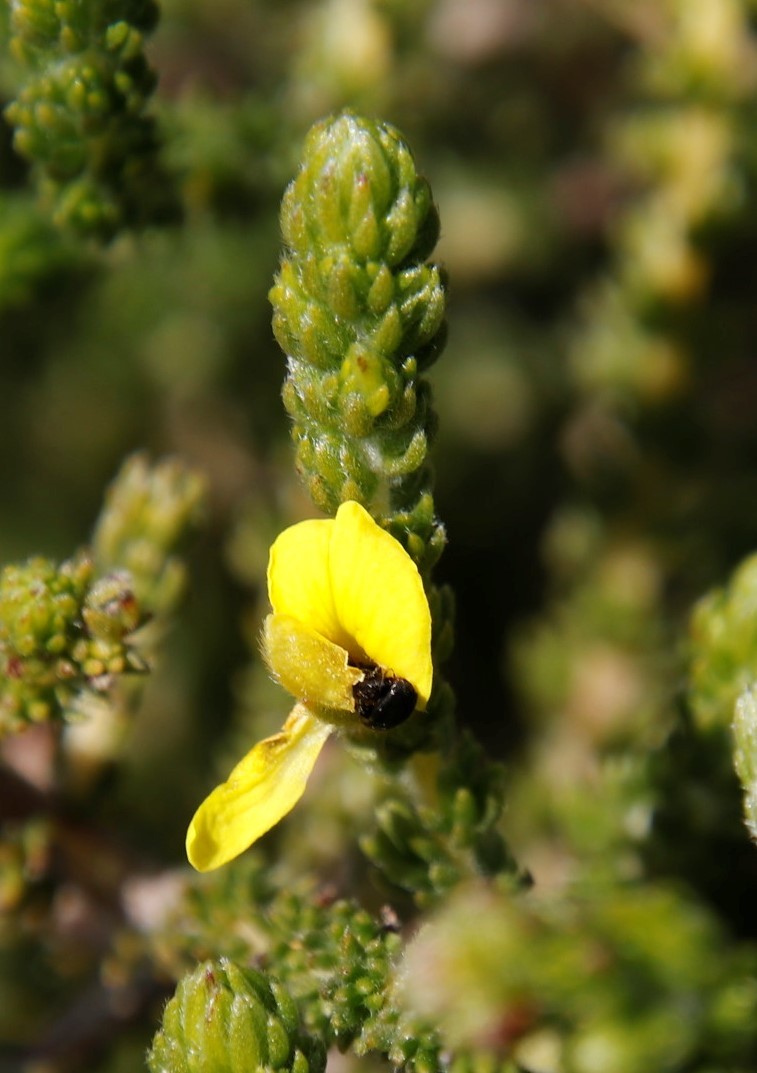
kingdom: Plantae
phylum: Tracheophyta
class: Magnoliopsida
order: Fabales
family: Fabaceae
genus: Aspalathus
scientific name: Aspalathus ericifolia
